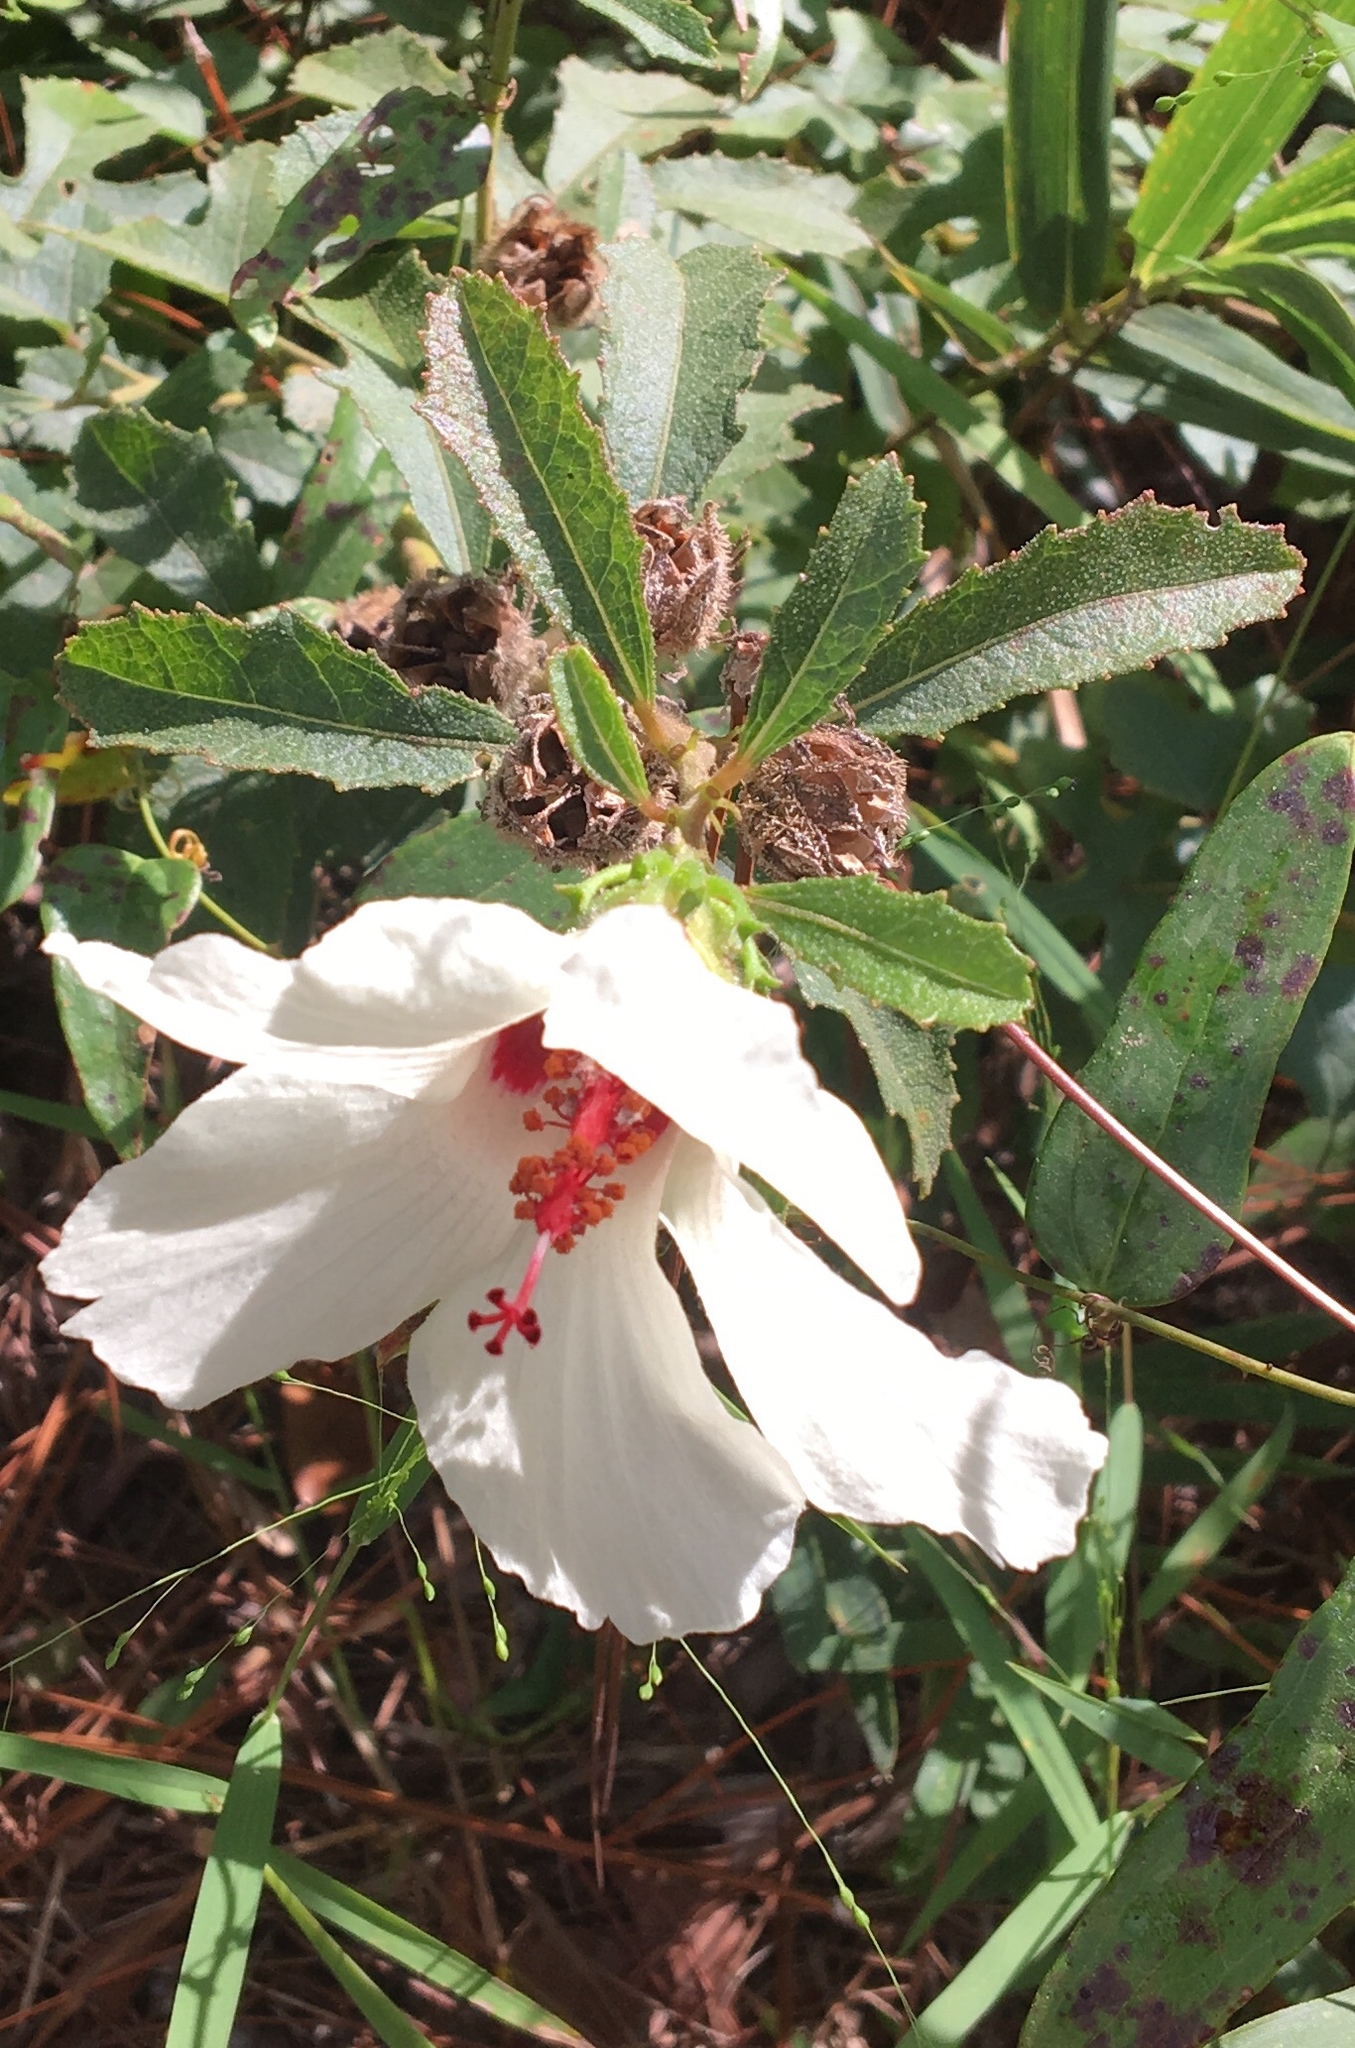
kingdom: Plantae
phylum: Tracheophyta
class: Magnoliopsida
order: Malvales
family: Malvaceae
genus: Hibiscus
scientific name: Hibiscus aculeatus
